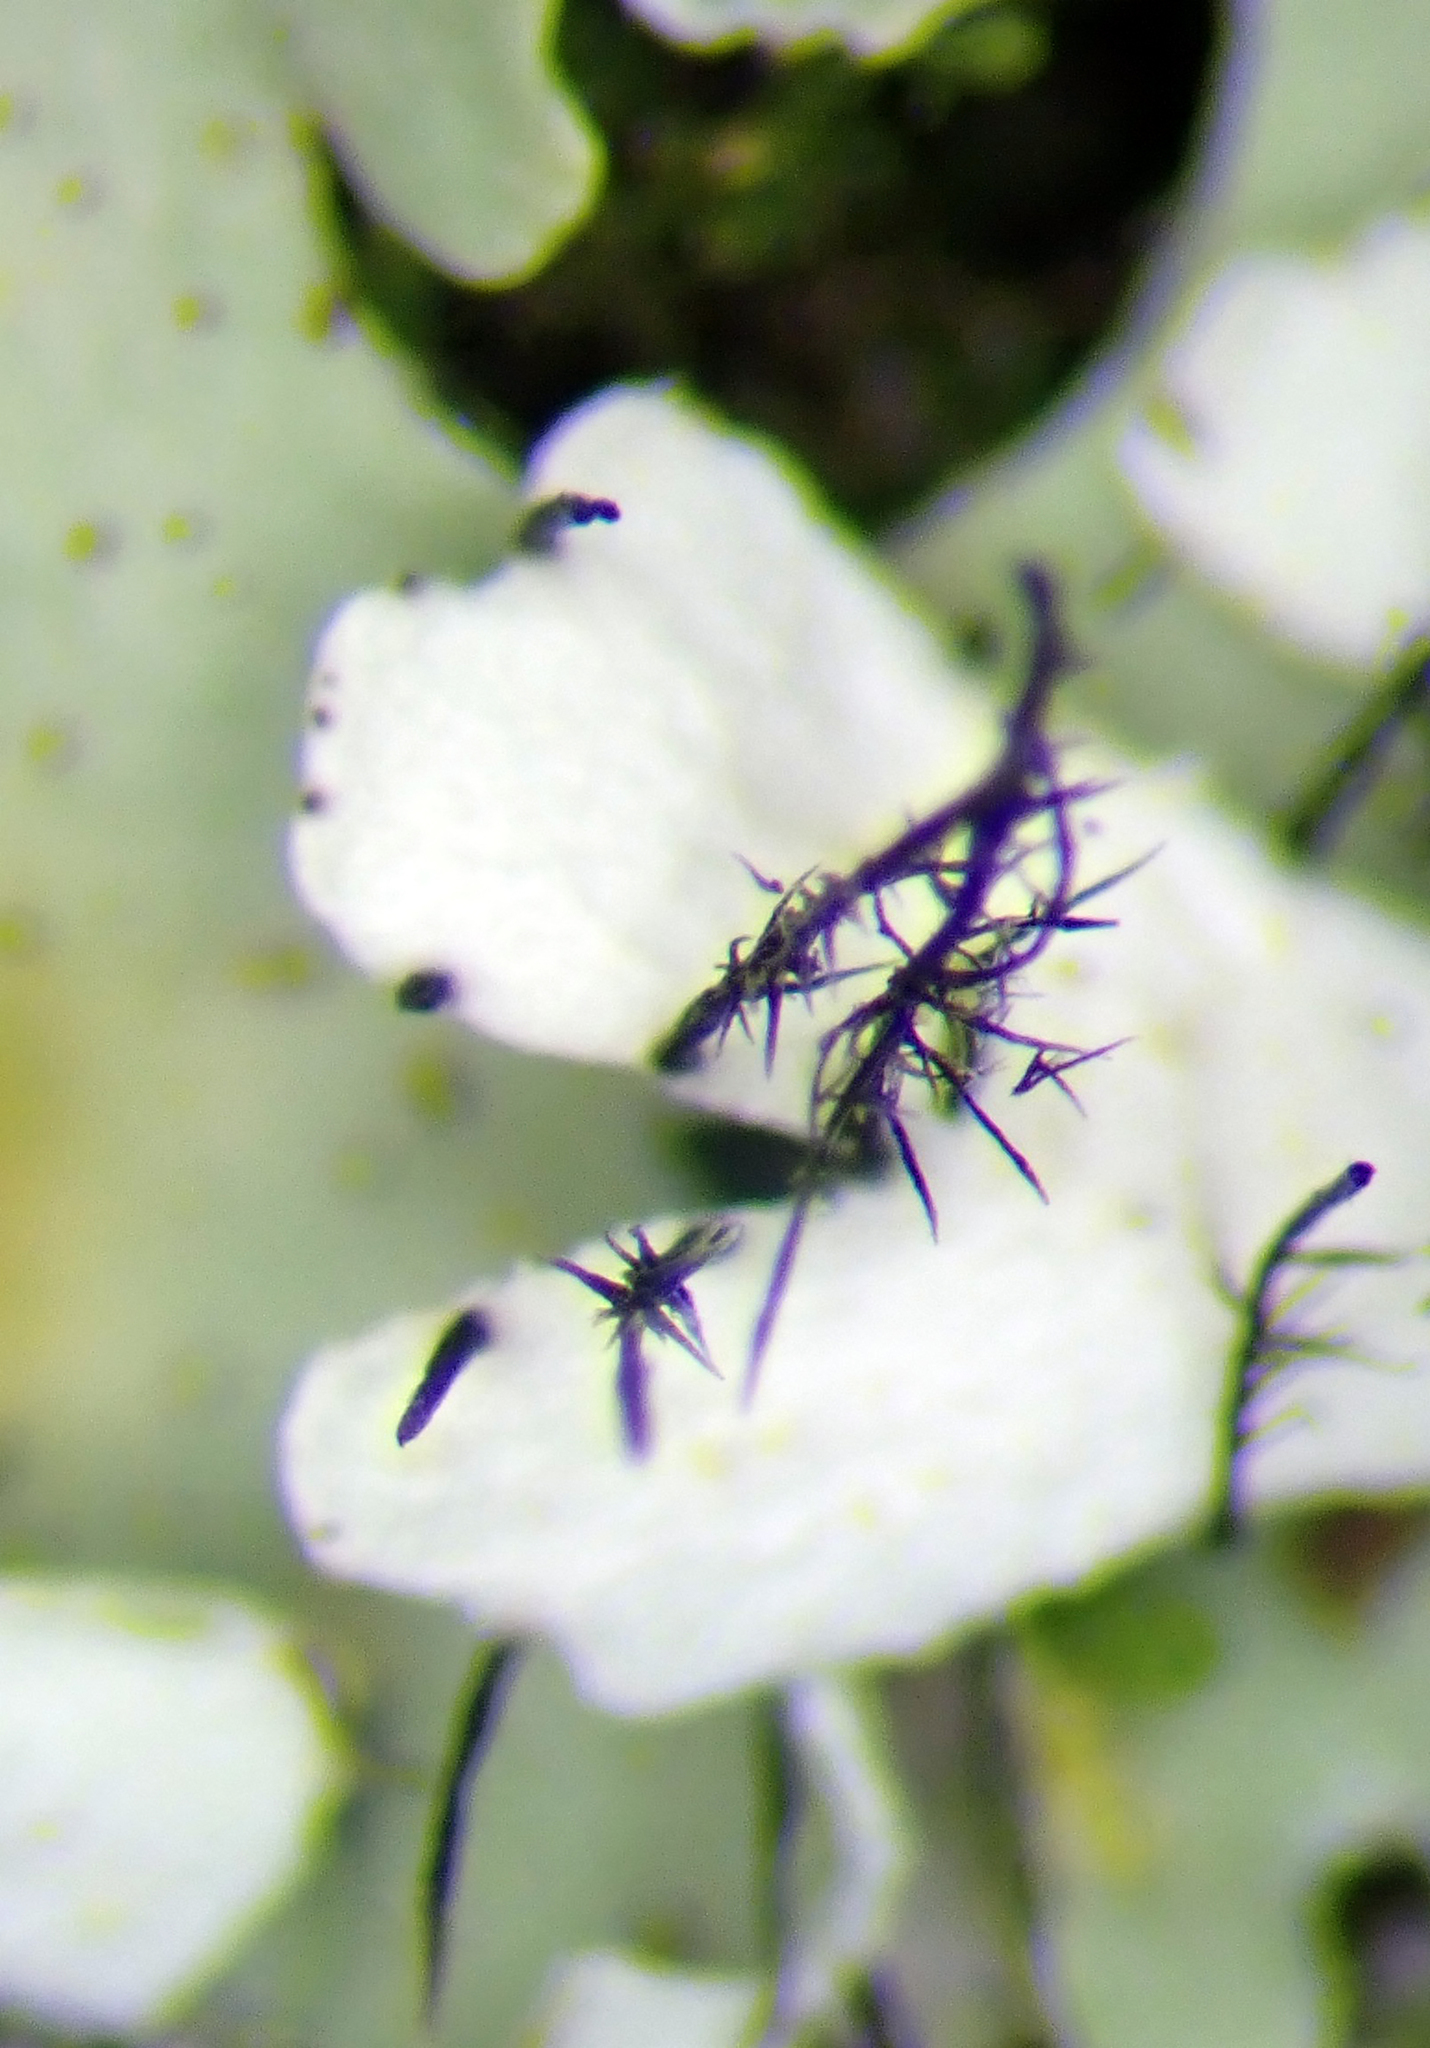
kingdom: Fungi
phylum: Ascomycota
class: Lecanoromycetes
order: Caliciales
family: Physciaceae
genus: Polyblastidium
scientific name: Polyblastidium casarettianum
